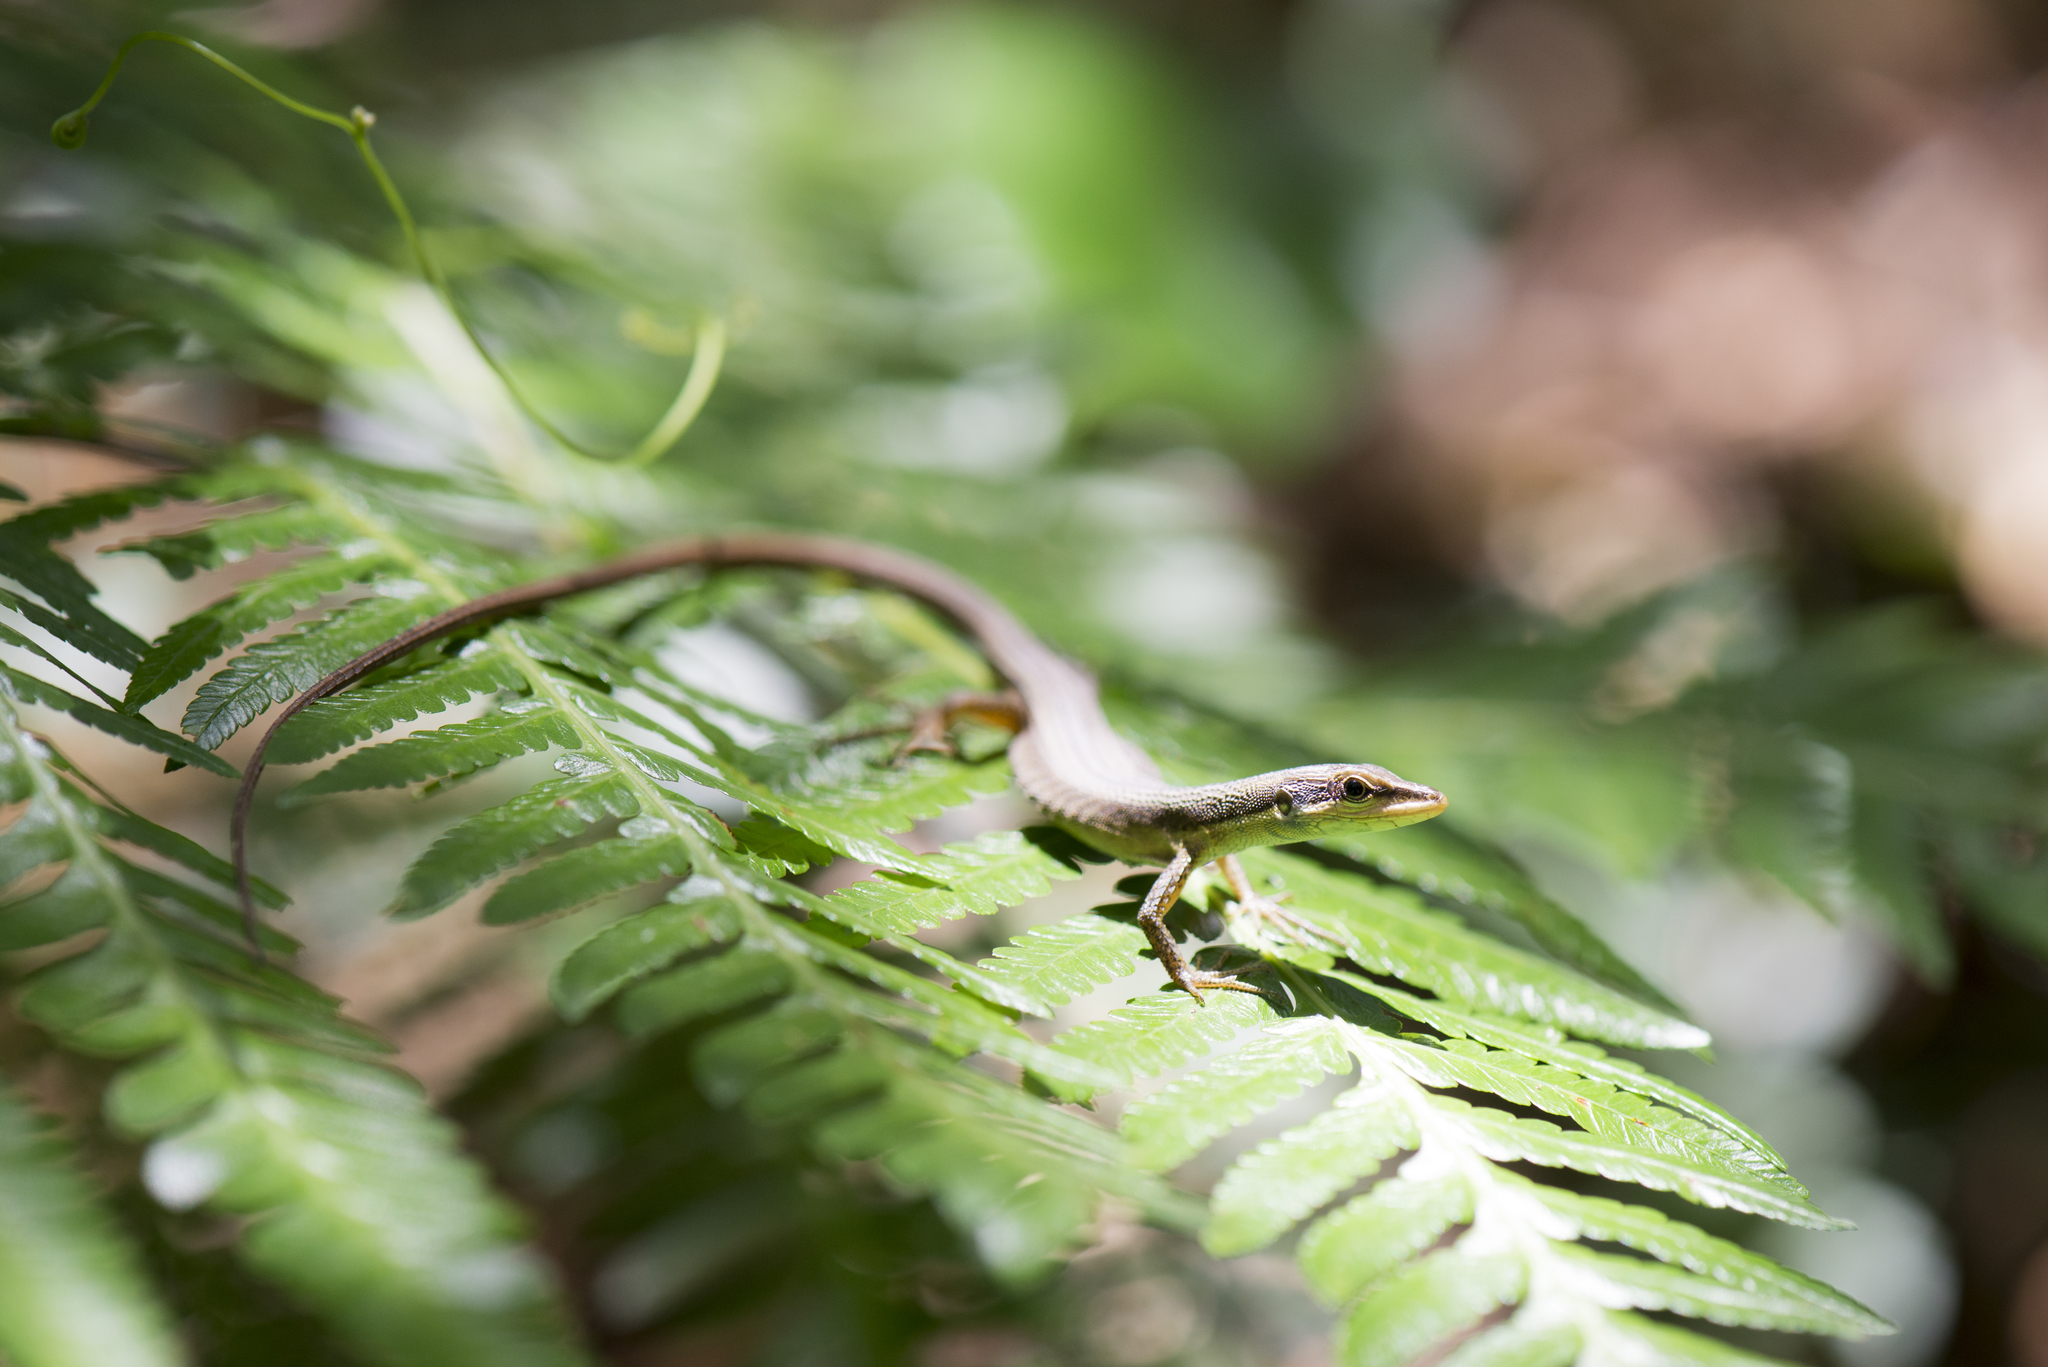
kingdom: Animalia
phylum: Chordata
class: Squamata
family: Lacertidae
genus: Takydromus
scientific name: Takydromus kuehnei
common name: Kuhne’s grass lizard
